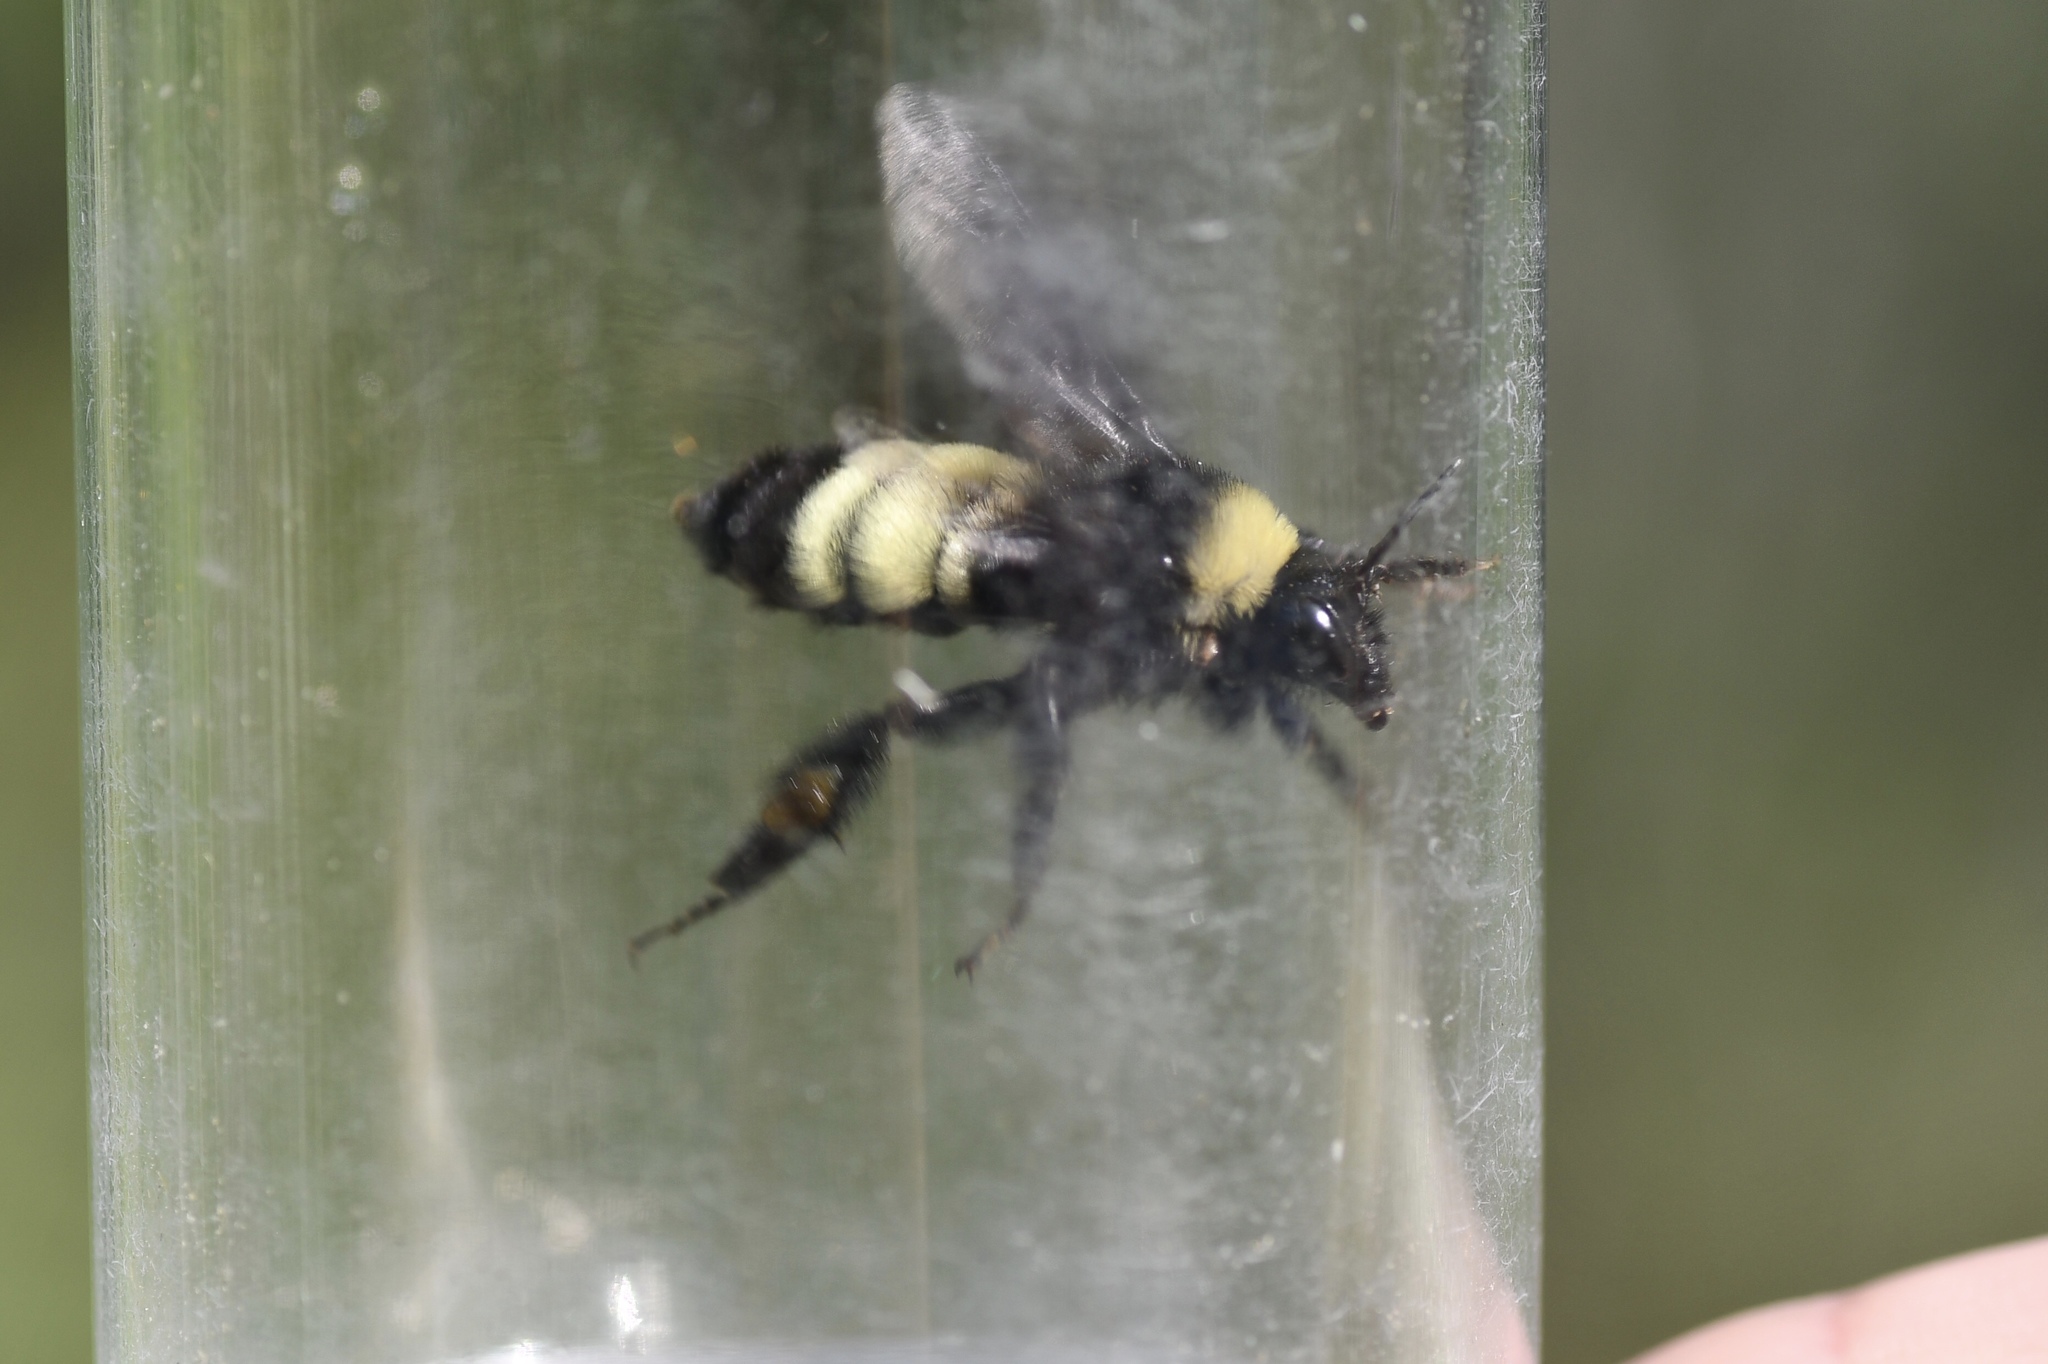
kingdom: Animalia
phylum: Arthropoda
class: Insecta
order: Hymenoptera
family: Apidae
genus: Bombus
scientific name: Bombus pensylvanicus
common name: Bumble bee
